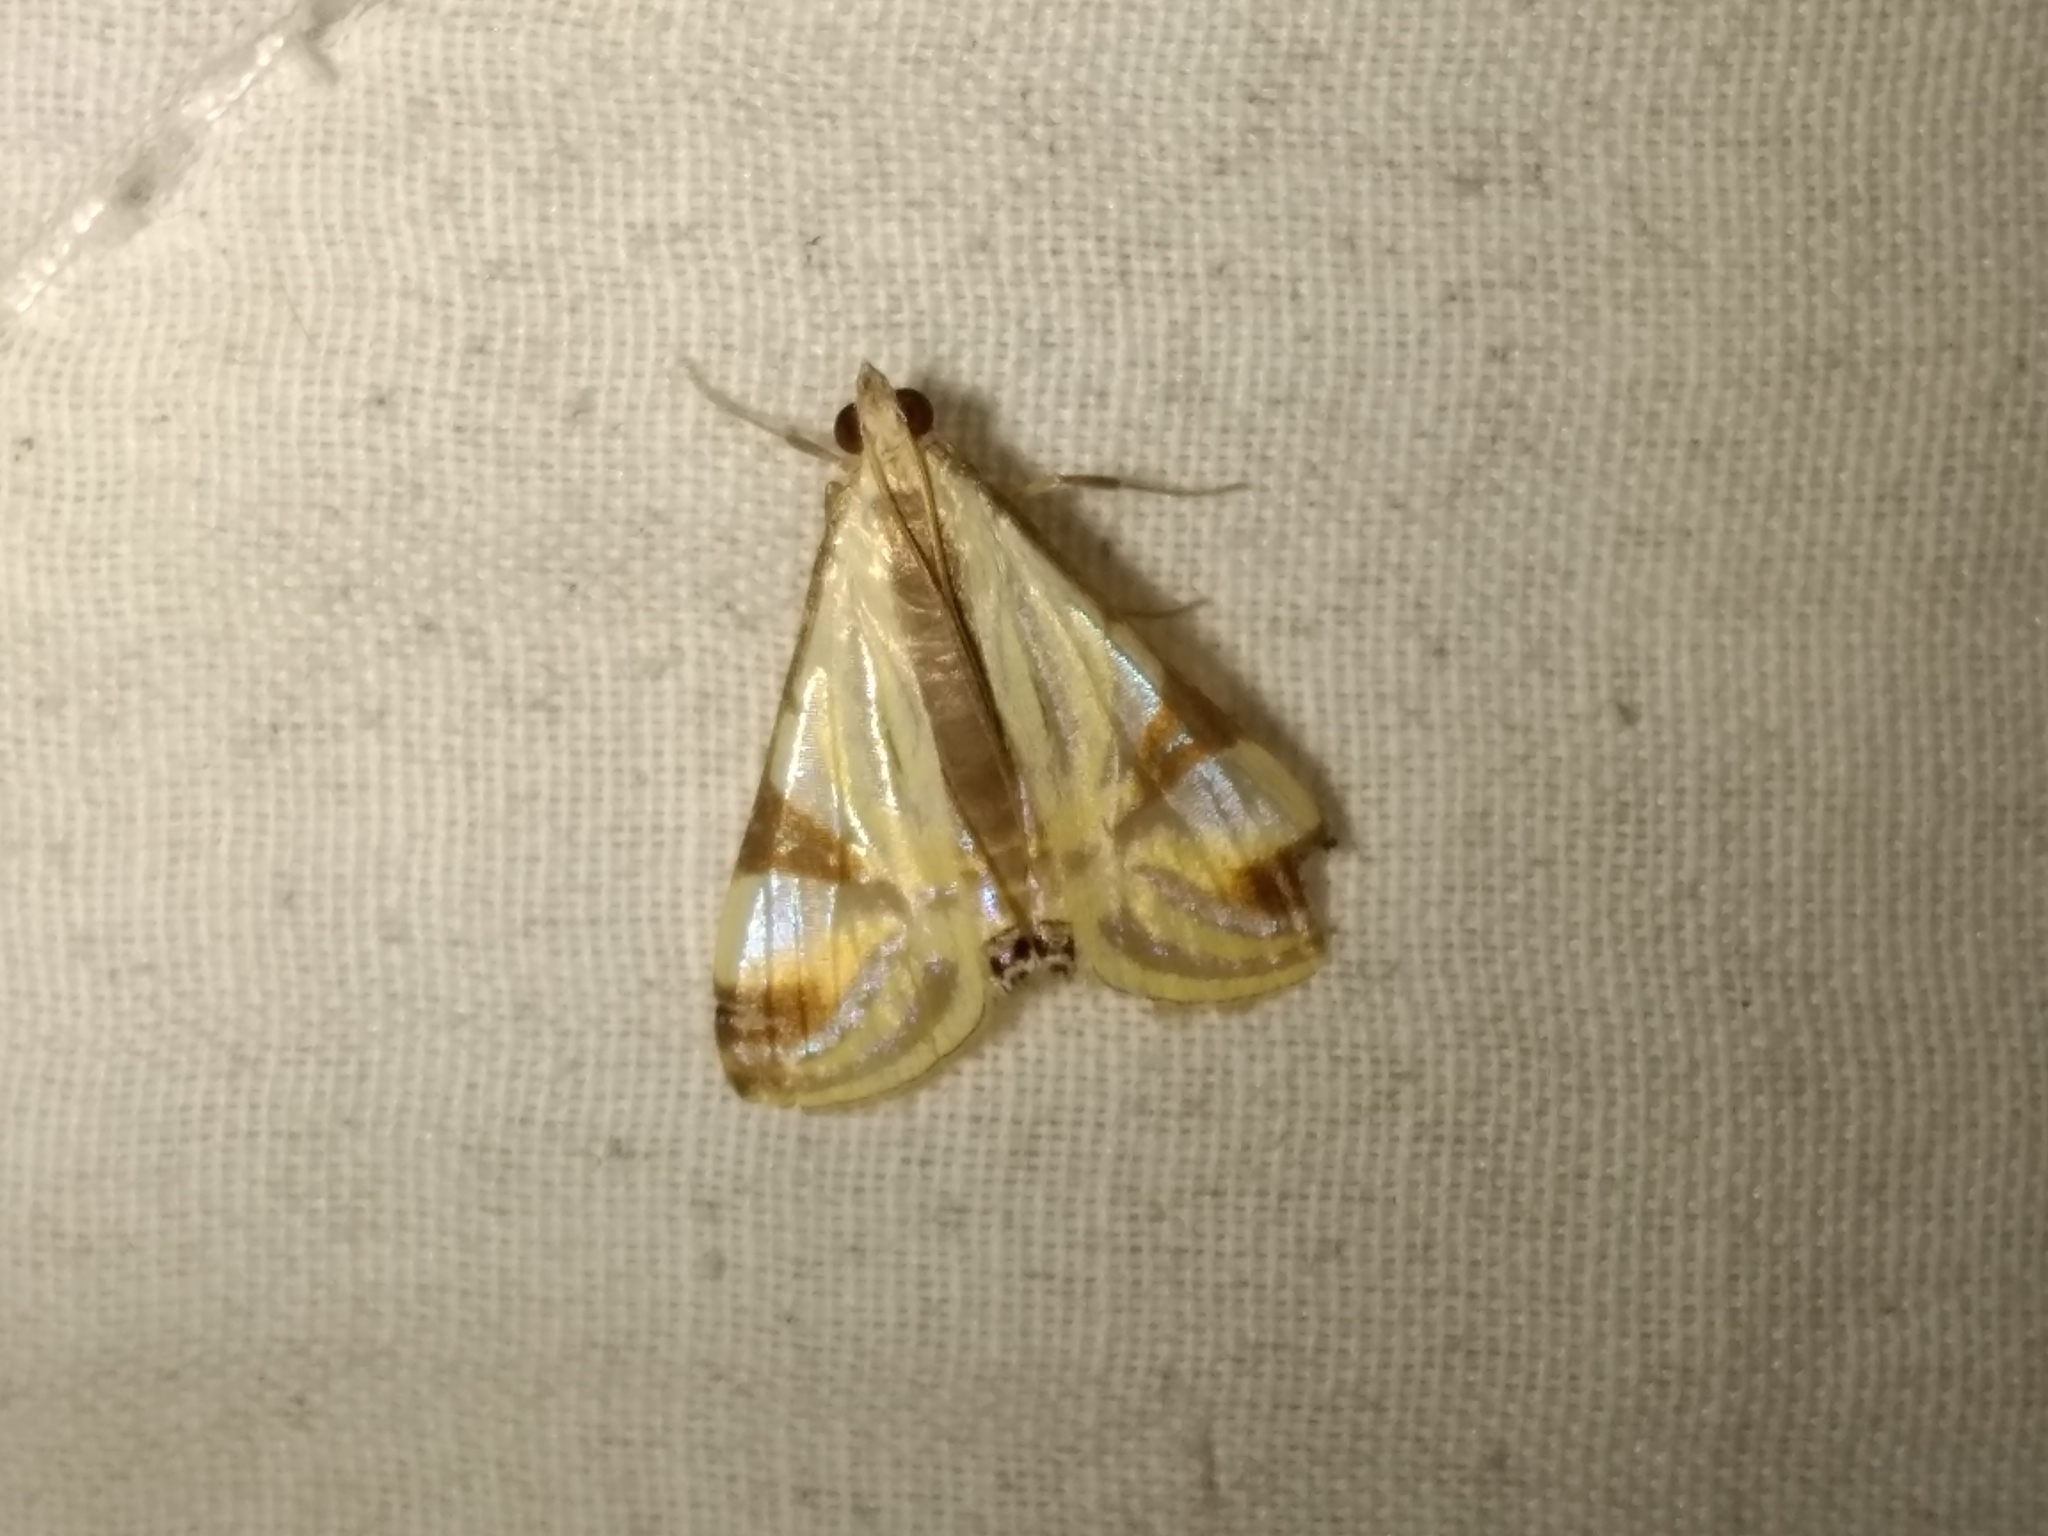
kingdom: Animalia
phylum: Arthropoda
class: Insecta
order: Lepidoptera
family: Crambidae
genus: Talanga
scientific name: Talanga tolumnialis
